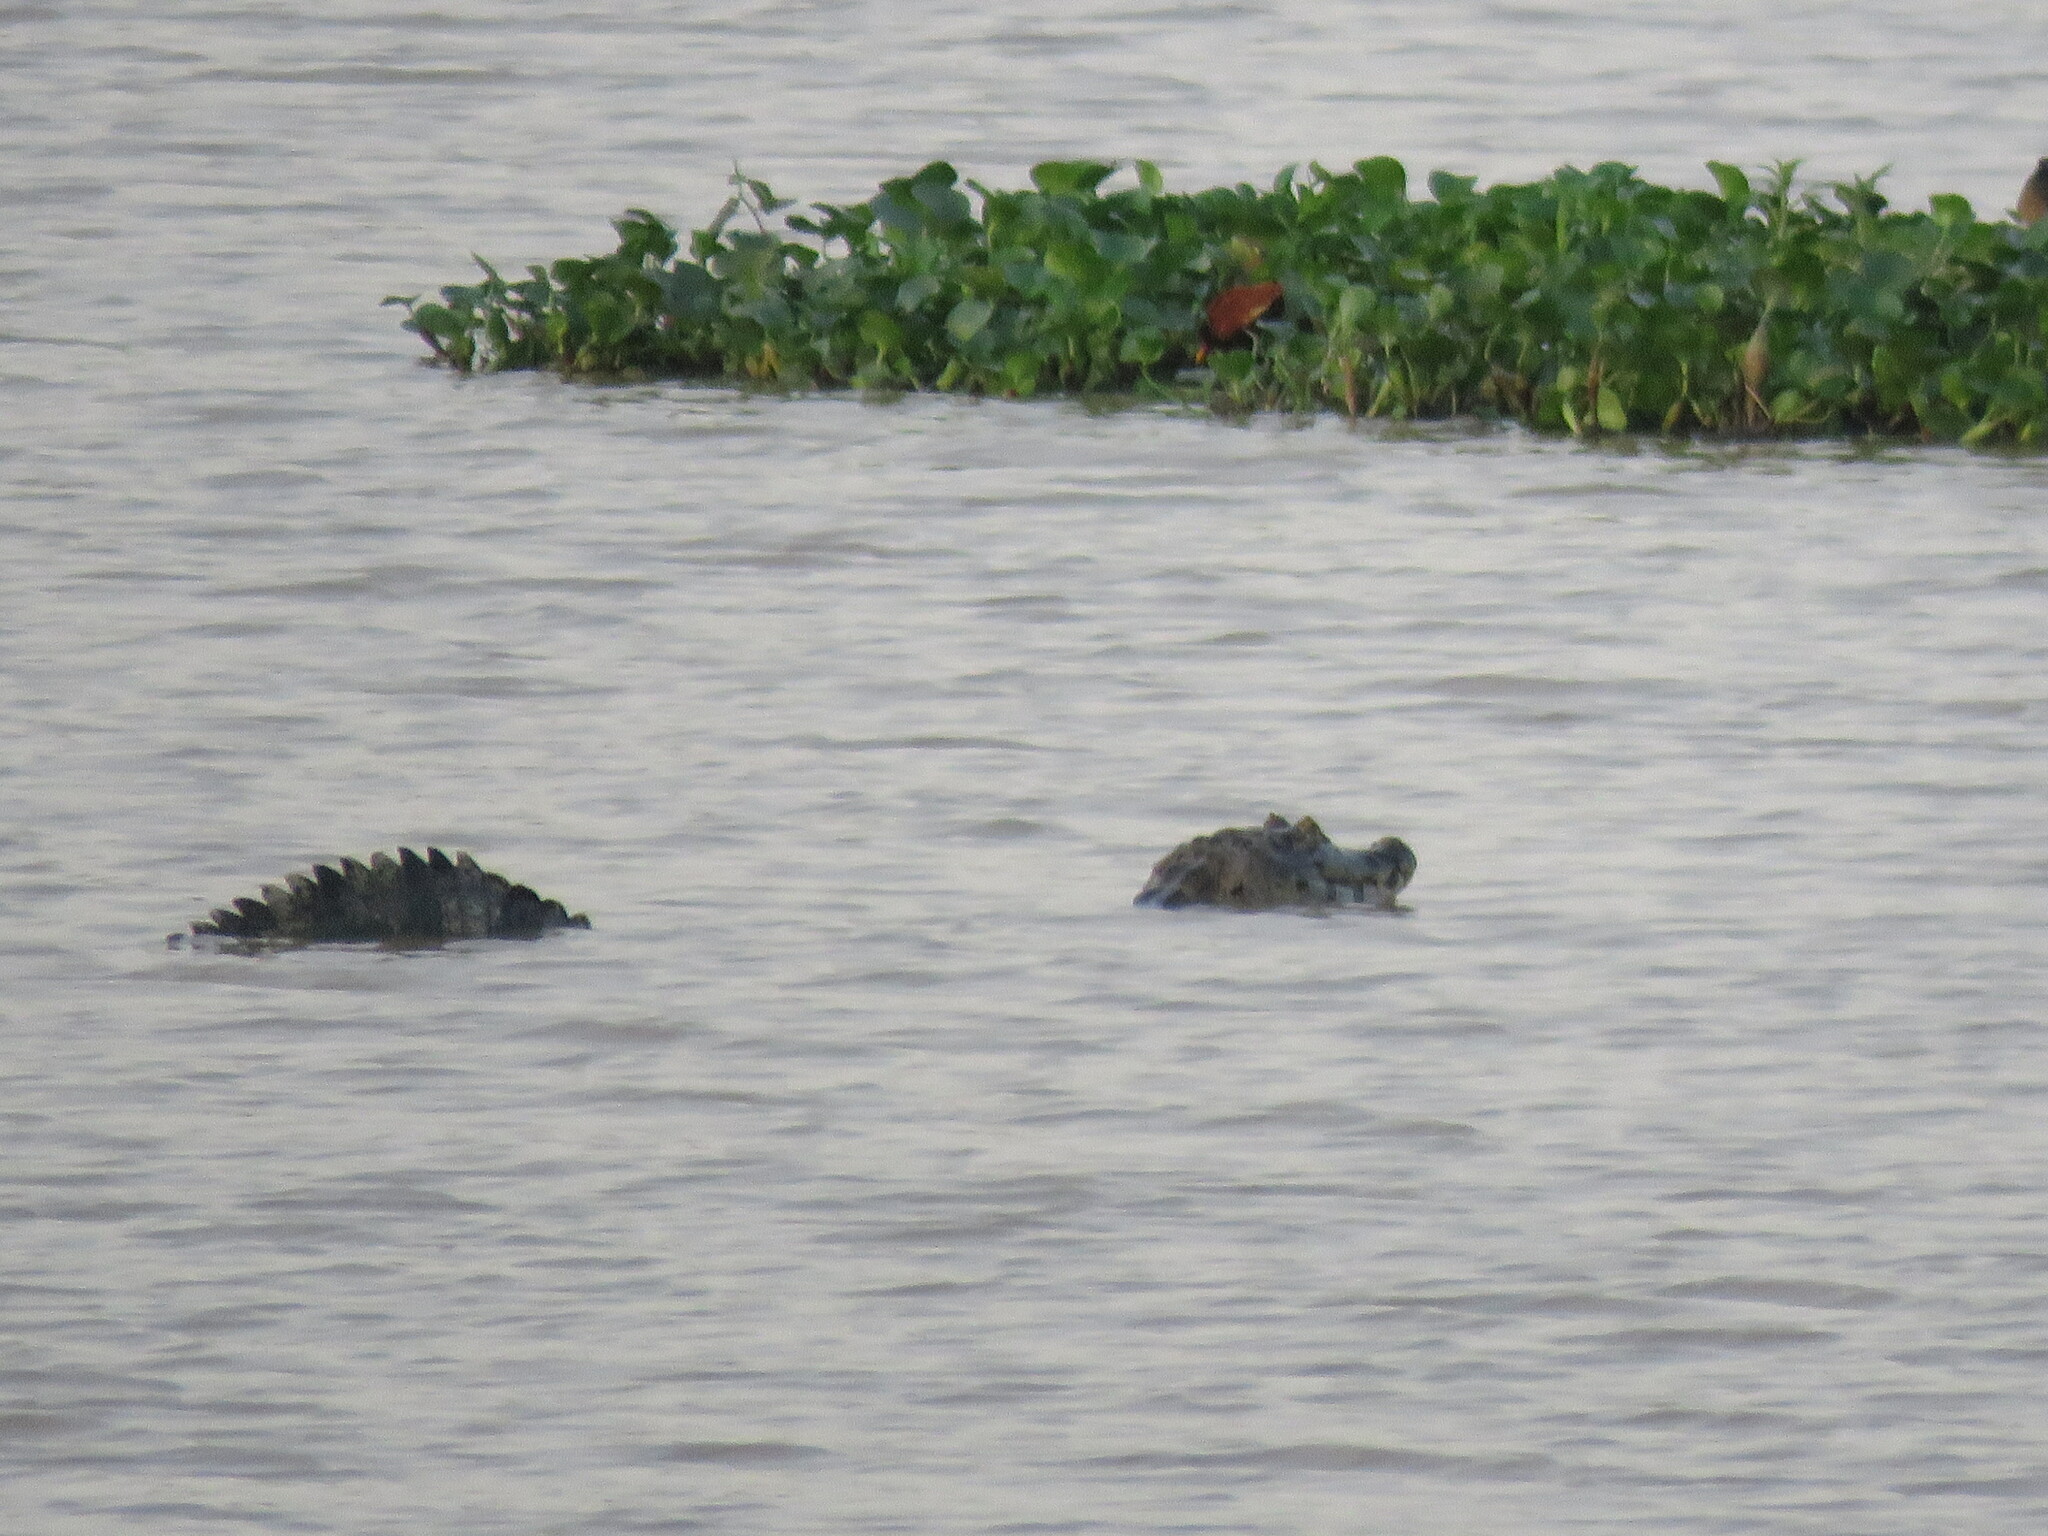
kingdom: Animalia
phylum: Chordata
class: Crocodylia
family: Alligatoridae
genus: Caiman
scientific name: Caiman yacare
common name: Yacare caiman
